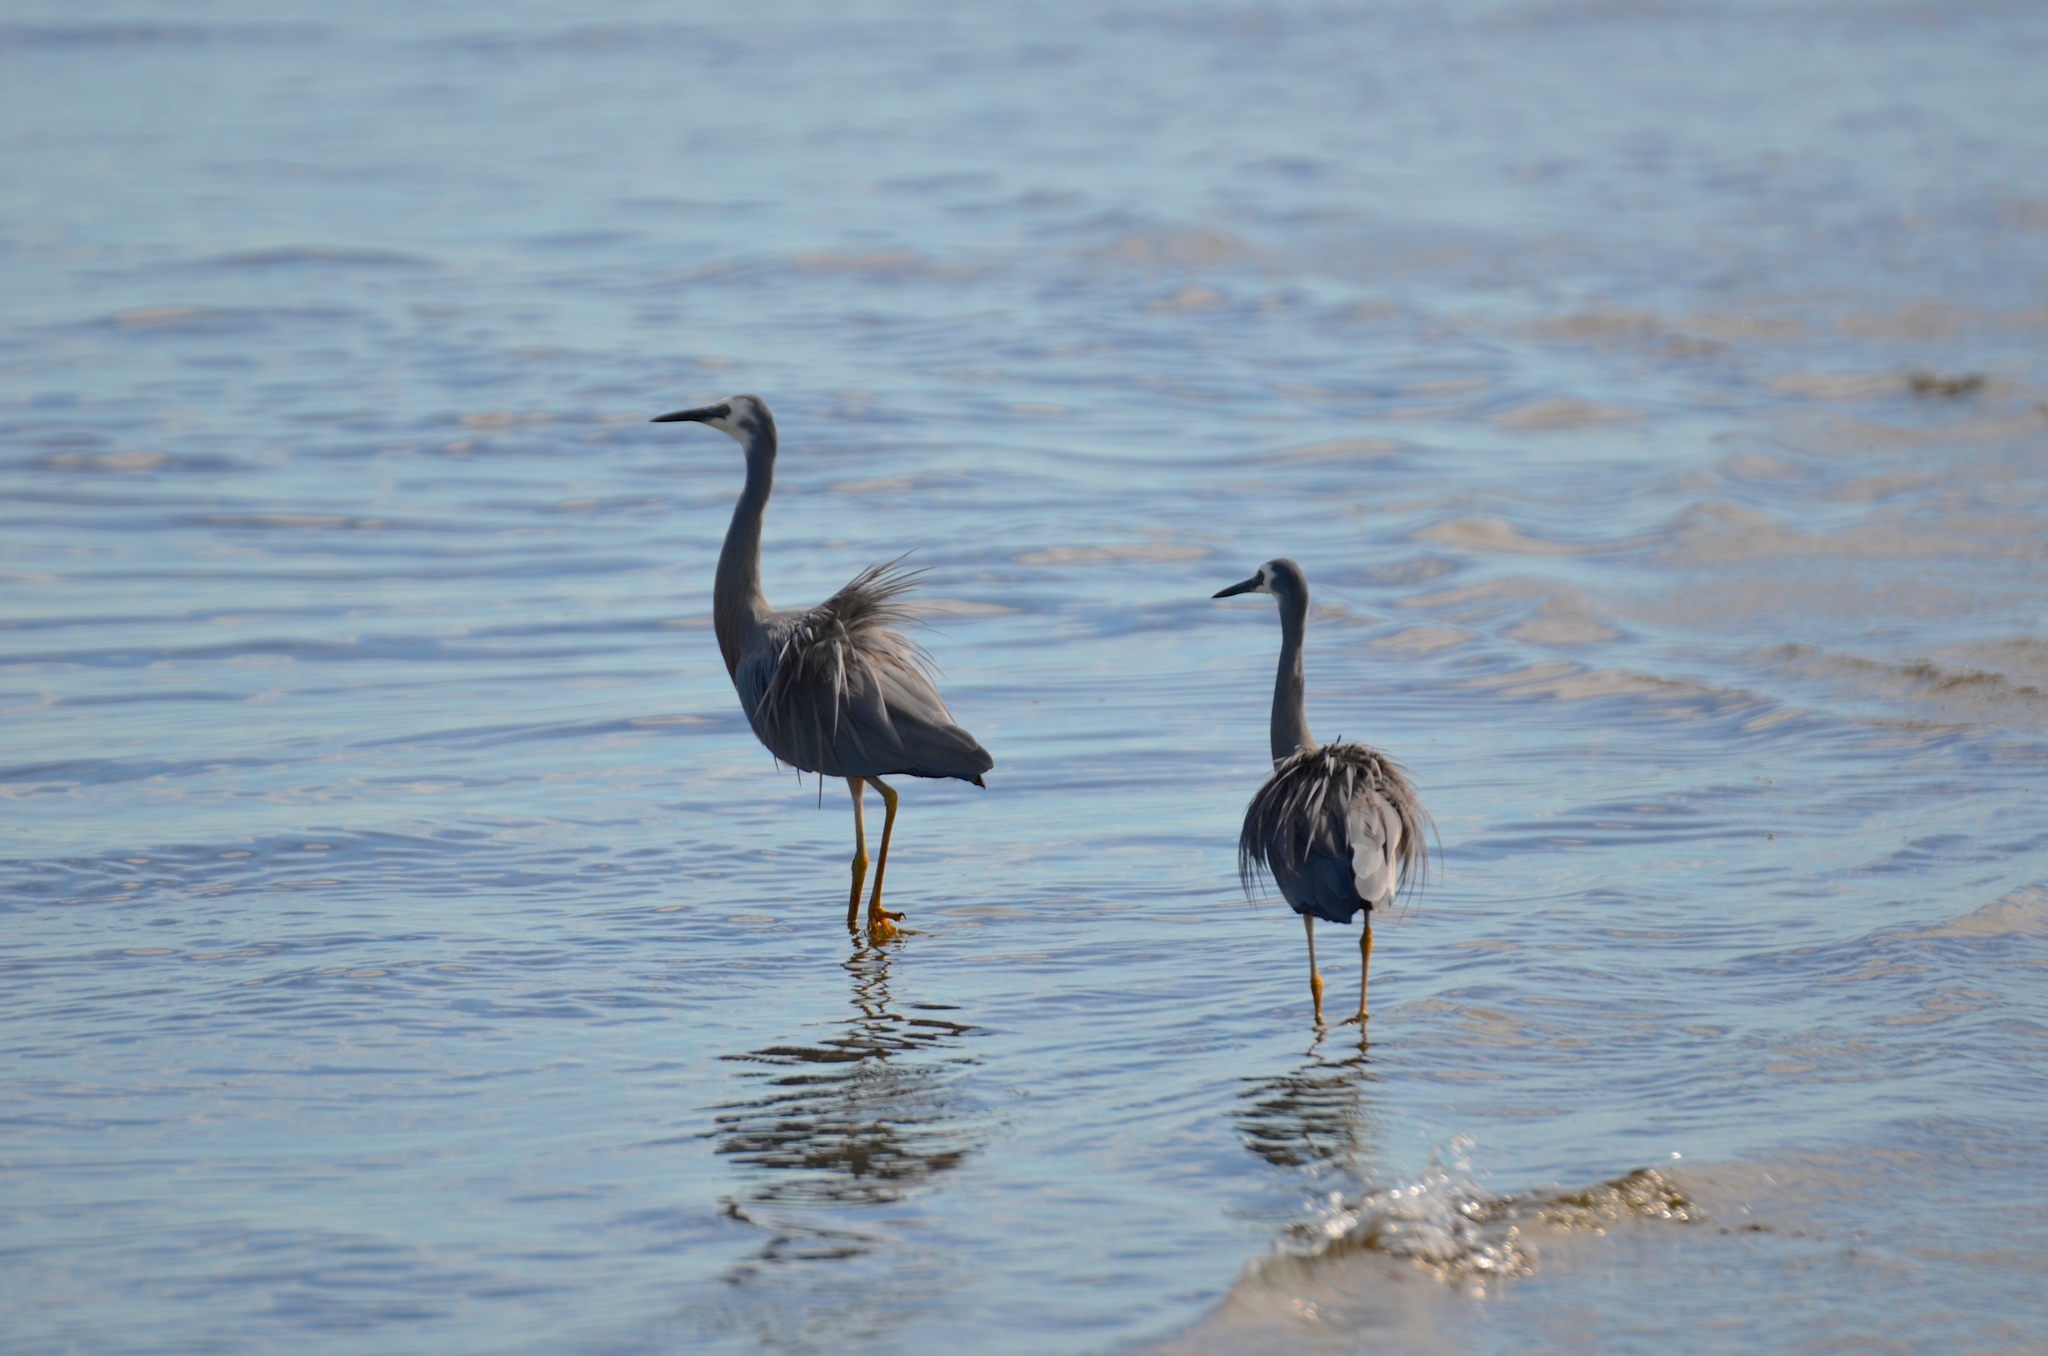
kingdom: Animalia
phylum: Chordata
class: Aves
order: Pelecaniformes
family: Ardeidae
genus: Egretta
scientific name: Egretta novaehollandiae
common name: White-faced heron
